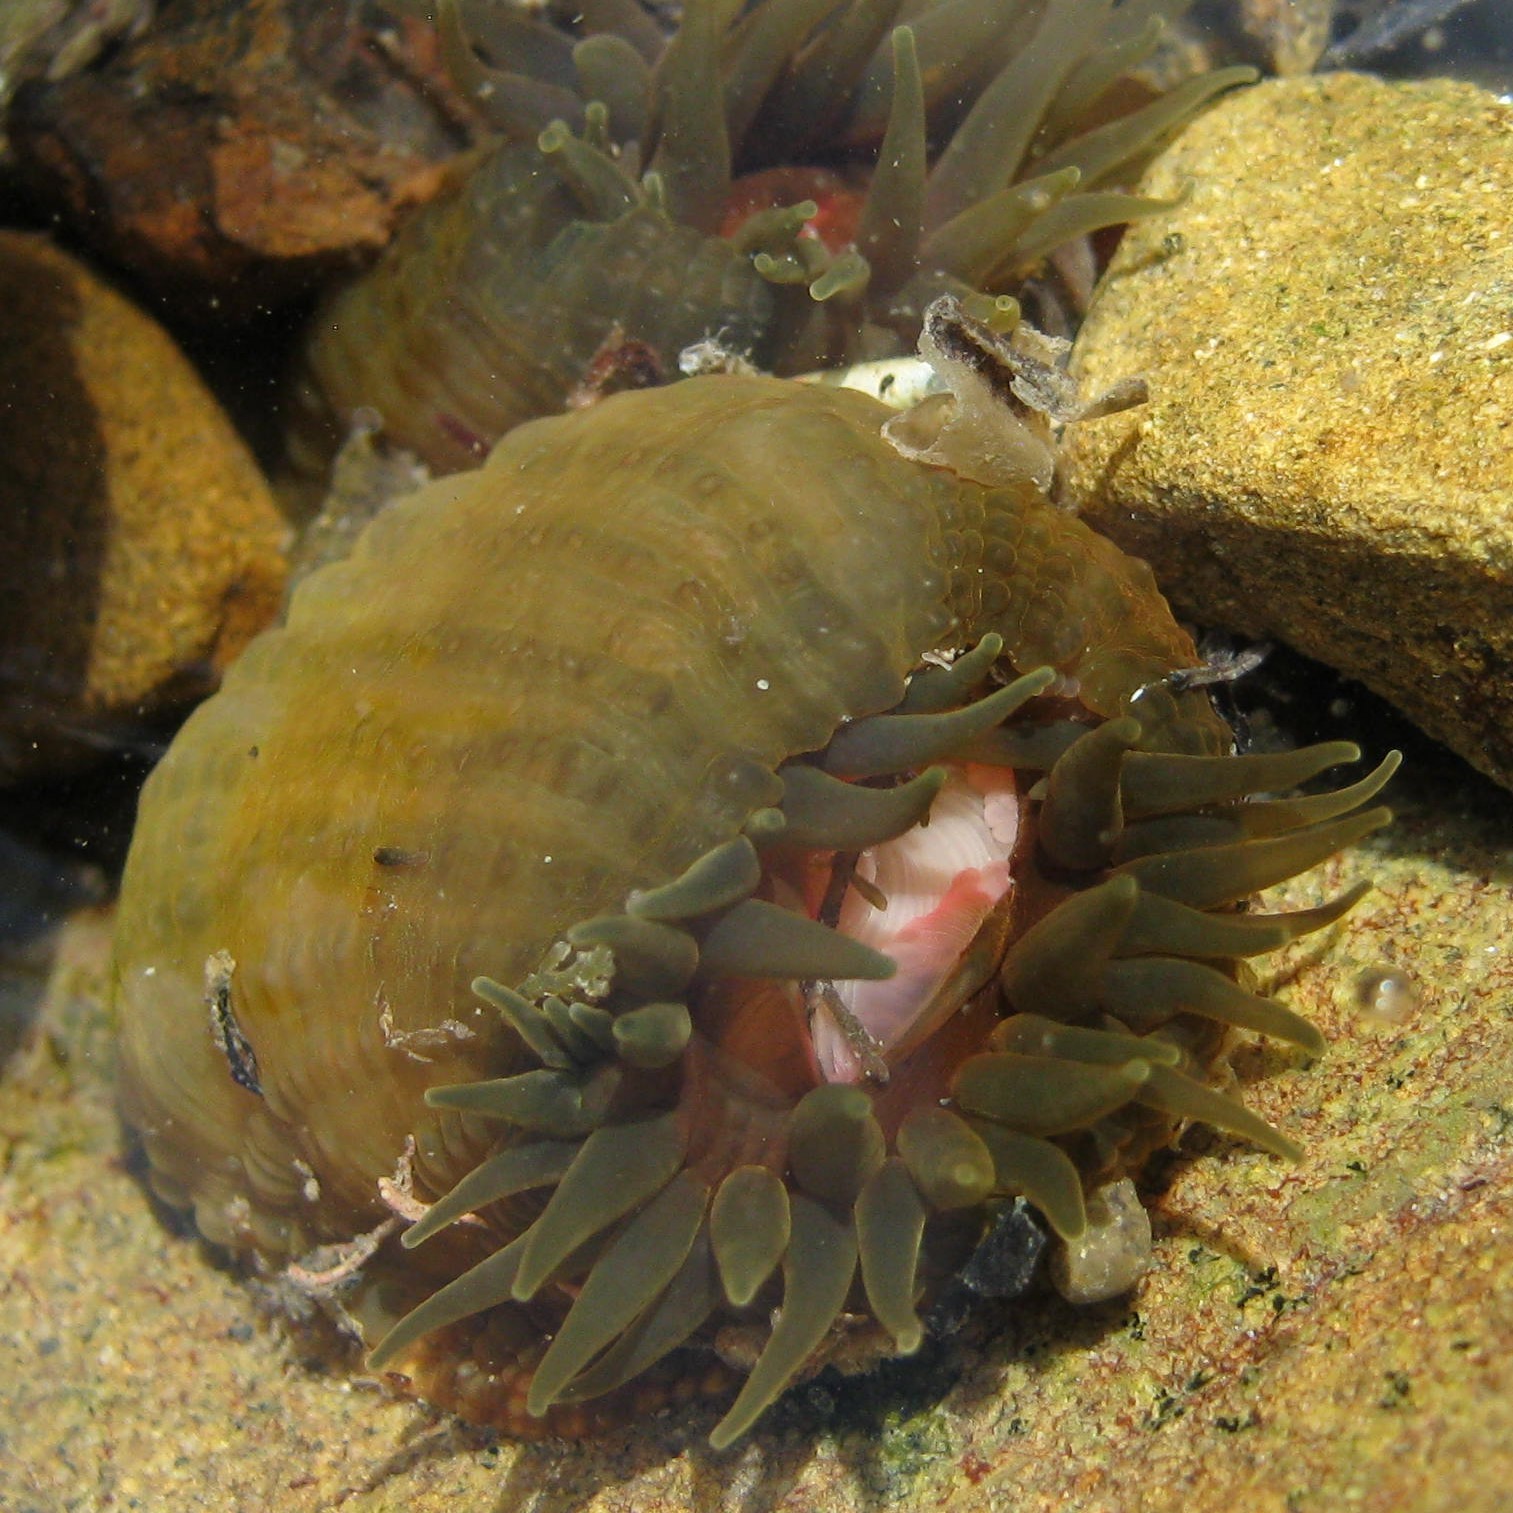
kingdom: Animalia
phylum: Cnidaria
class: Anthozoa
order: Actiniaria
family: Actiniidae
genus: Isactinia
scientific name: Isactinia olivacea
